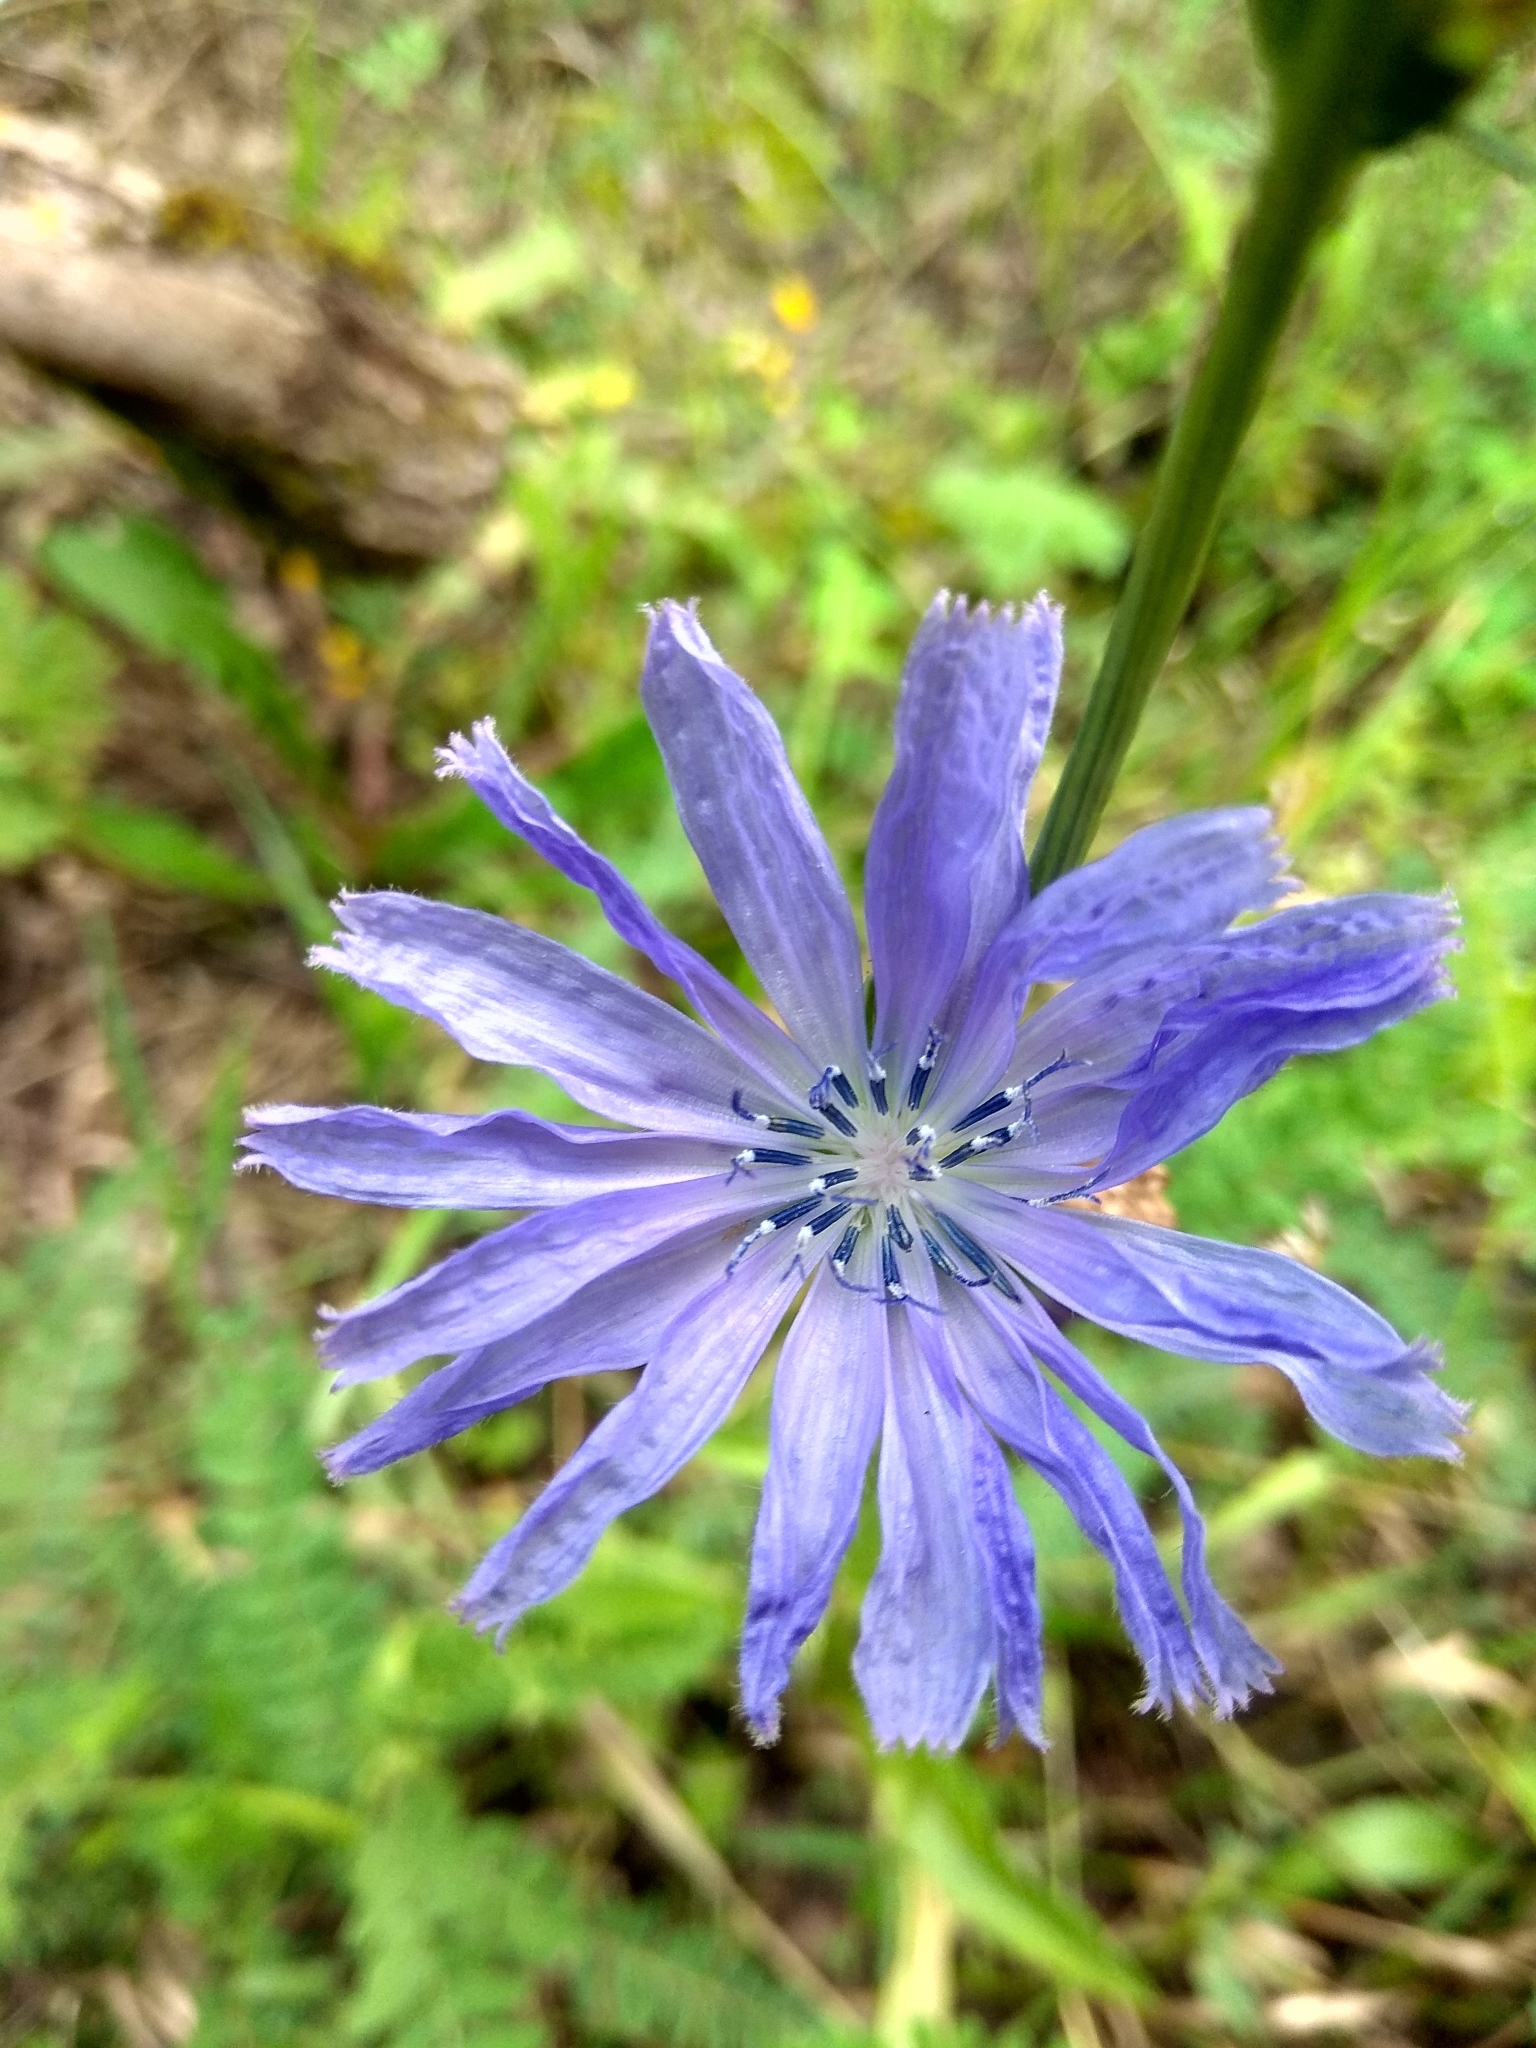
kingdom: Plantae
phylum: Tracheophyta
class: Magnoliopsida
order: Asterales
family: Asteraceae
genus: Cichorium
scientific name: Cichorium intybus
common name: Chicory
